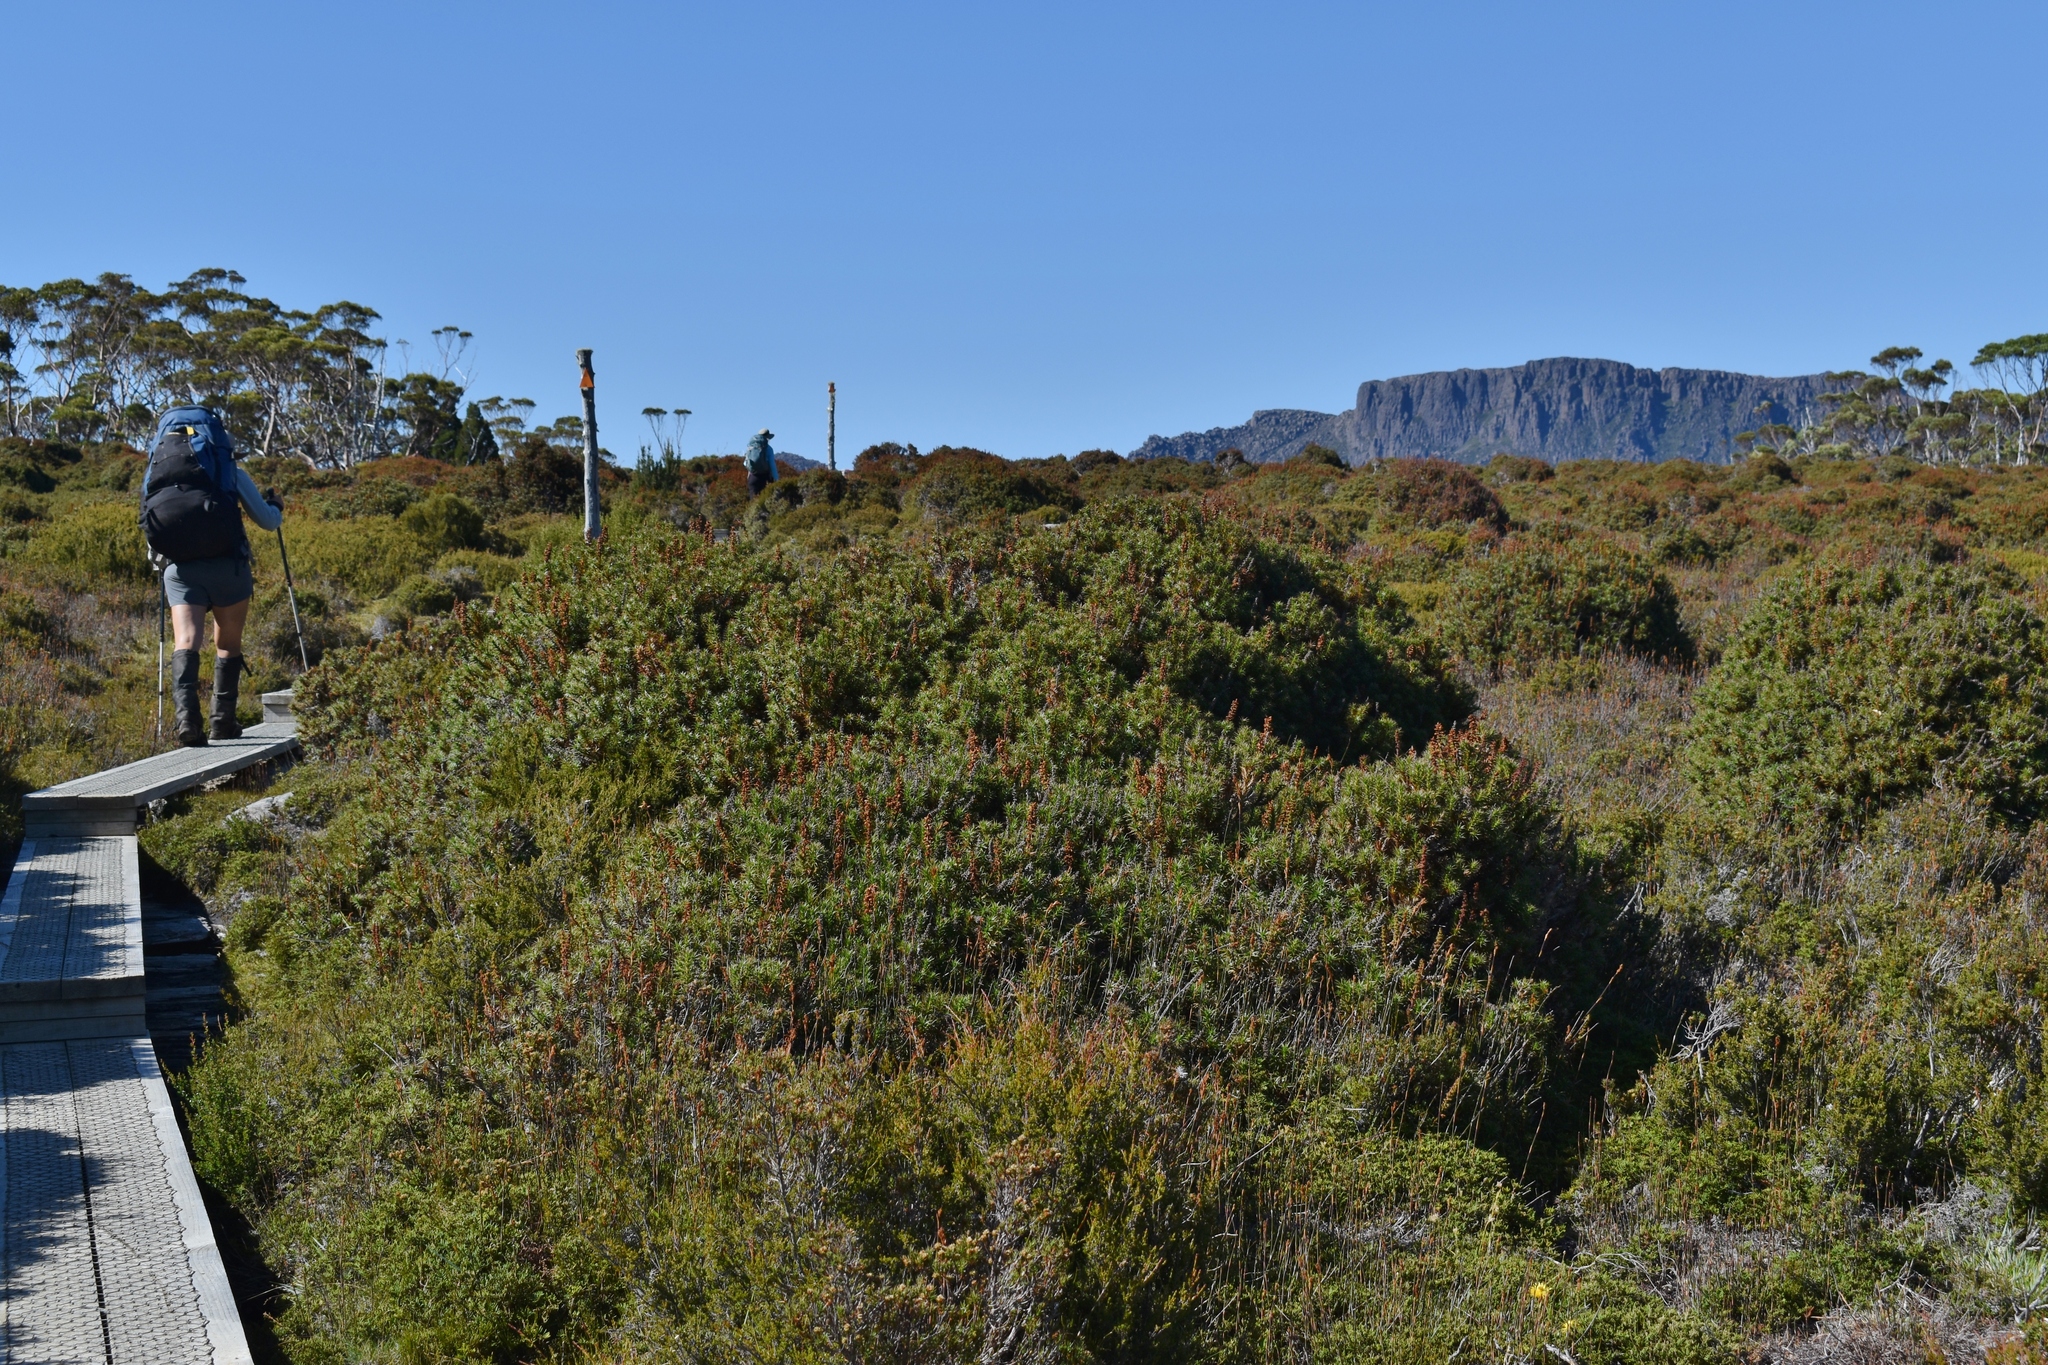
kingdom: Plantae
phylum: Tracheophyta
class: Magnoliopsida
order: Ericales
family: Ericaceae
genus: Dracophyllum
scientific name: Dracophyllum persistentifolium
